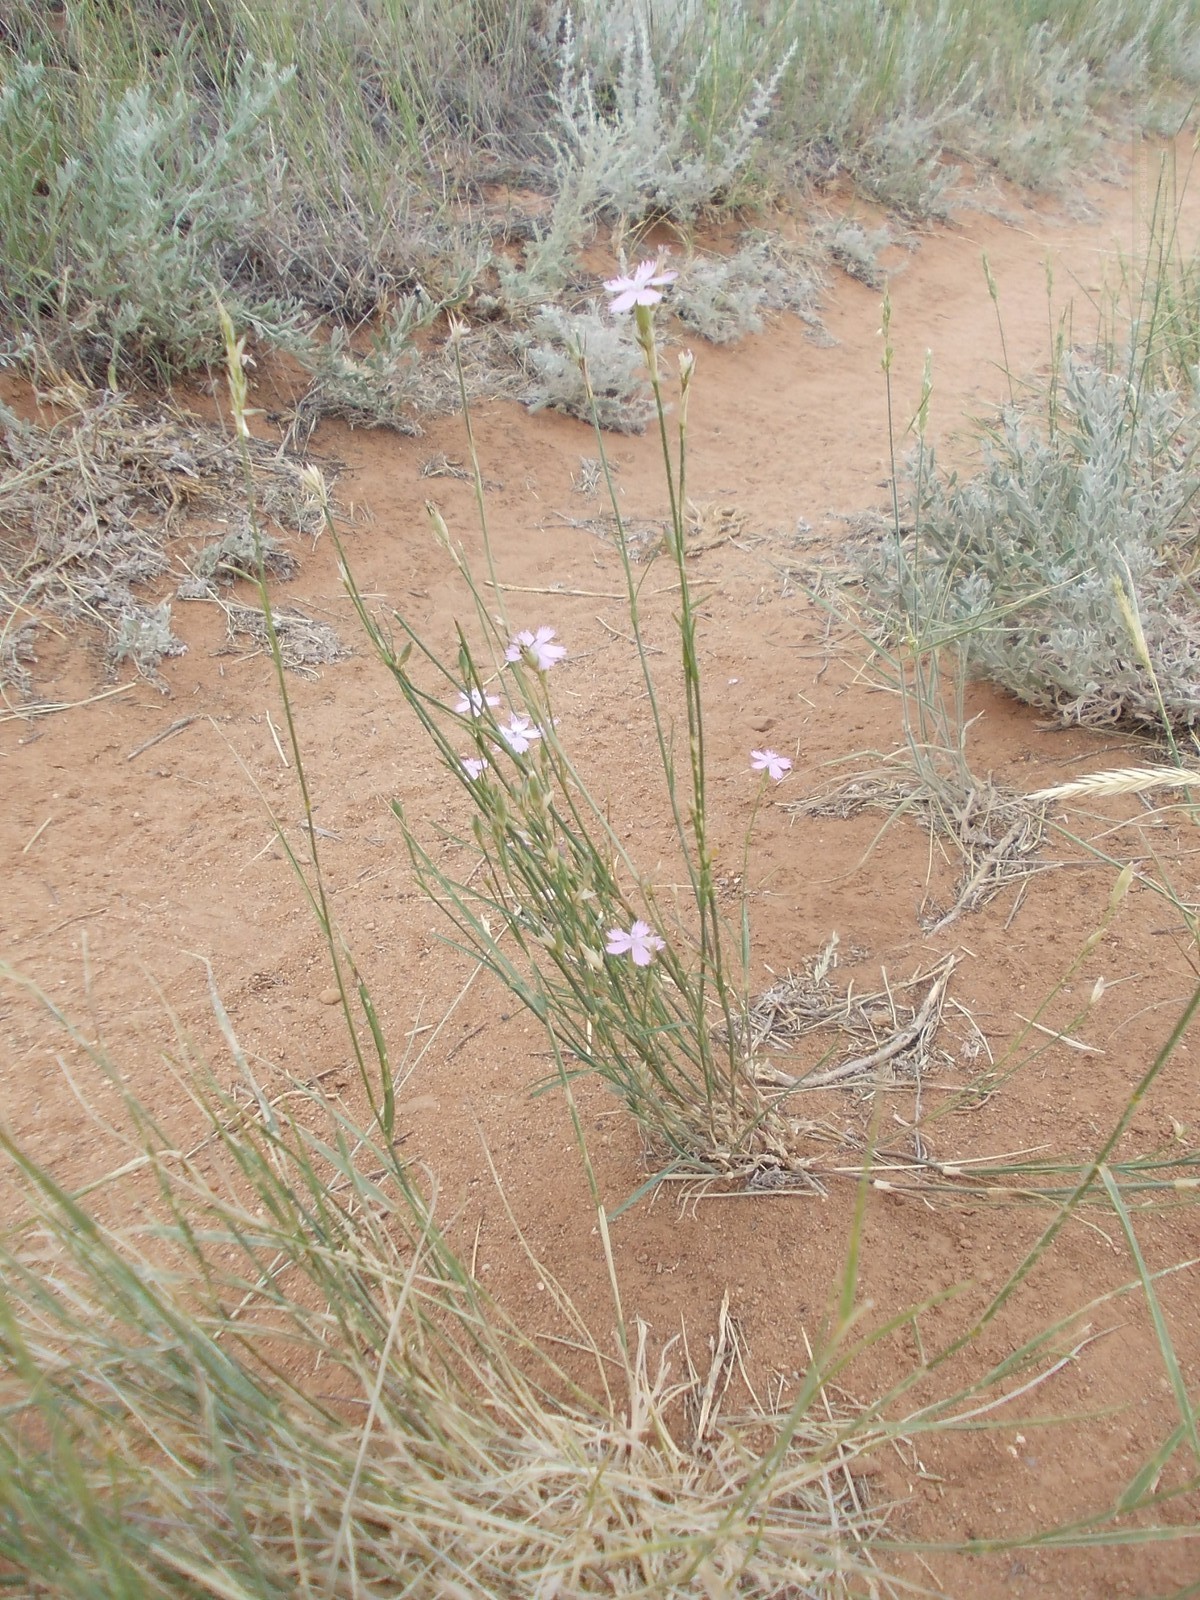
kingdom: Plantae
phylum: Tracheophyta
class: Magnoliopsida
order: Caryophyllales
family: Caryophyllaceae
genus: Dianthus
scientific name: Dianthus borbasii
